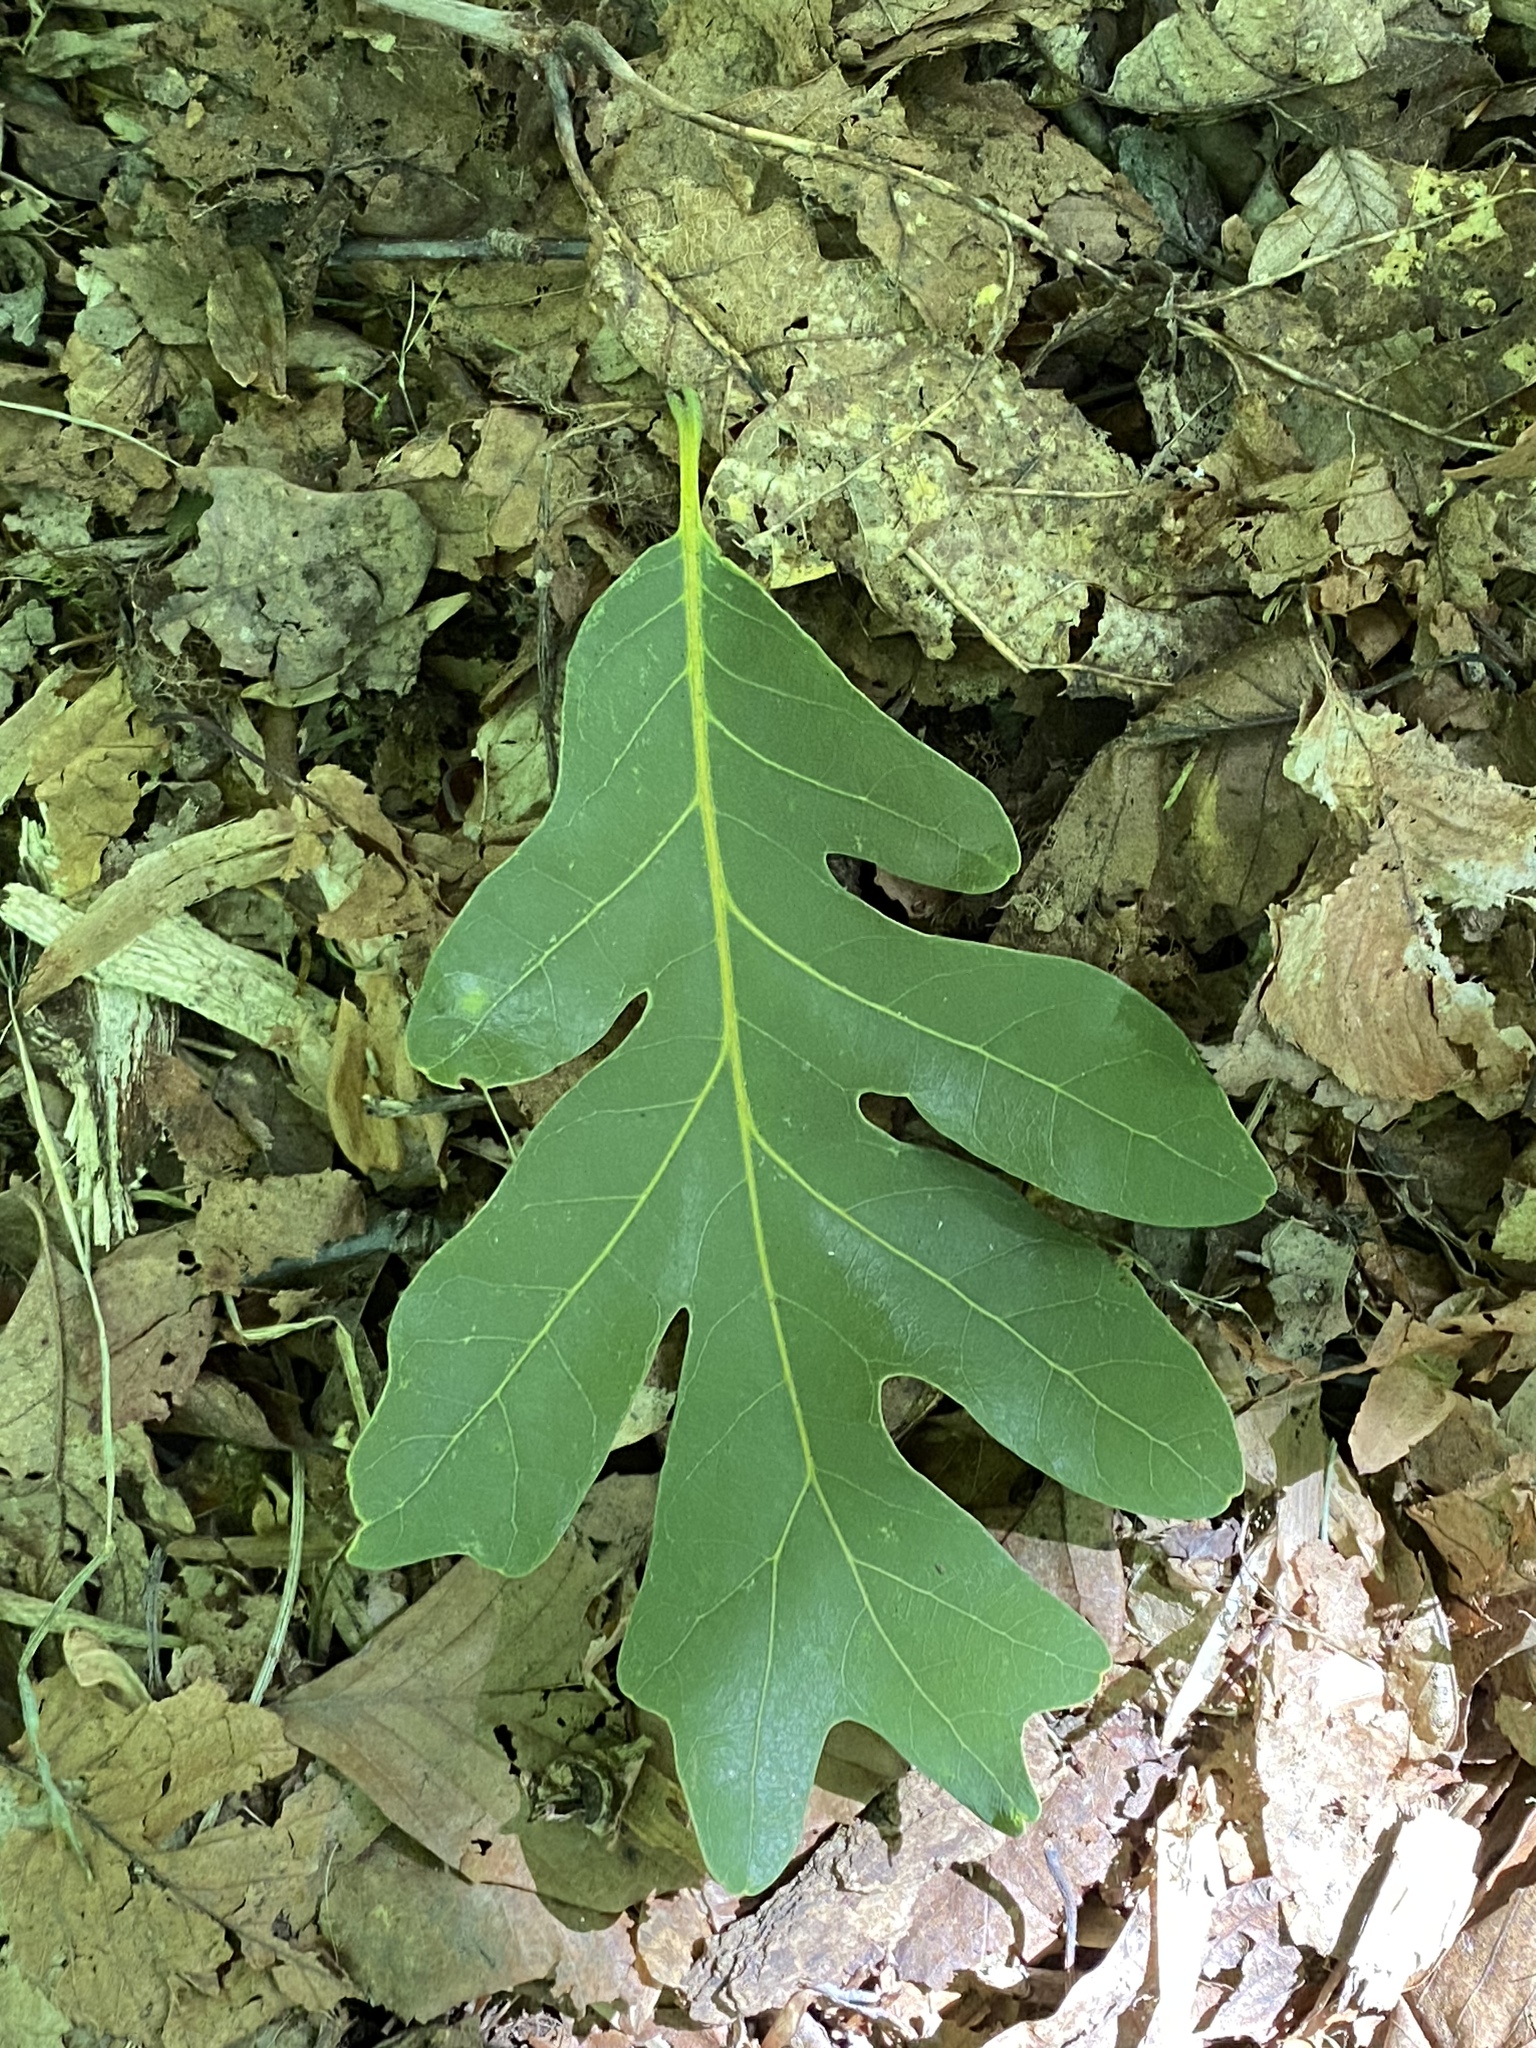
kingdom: Plantae
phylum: Tracheophyta
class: Magnoliopsida
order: Fagales
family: Fagaceae
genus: Quercus
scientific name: Quercus alba
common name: White oak
